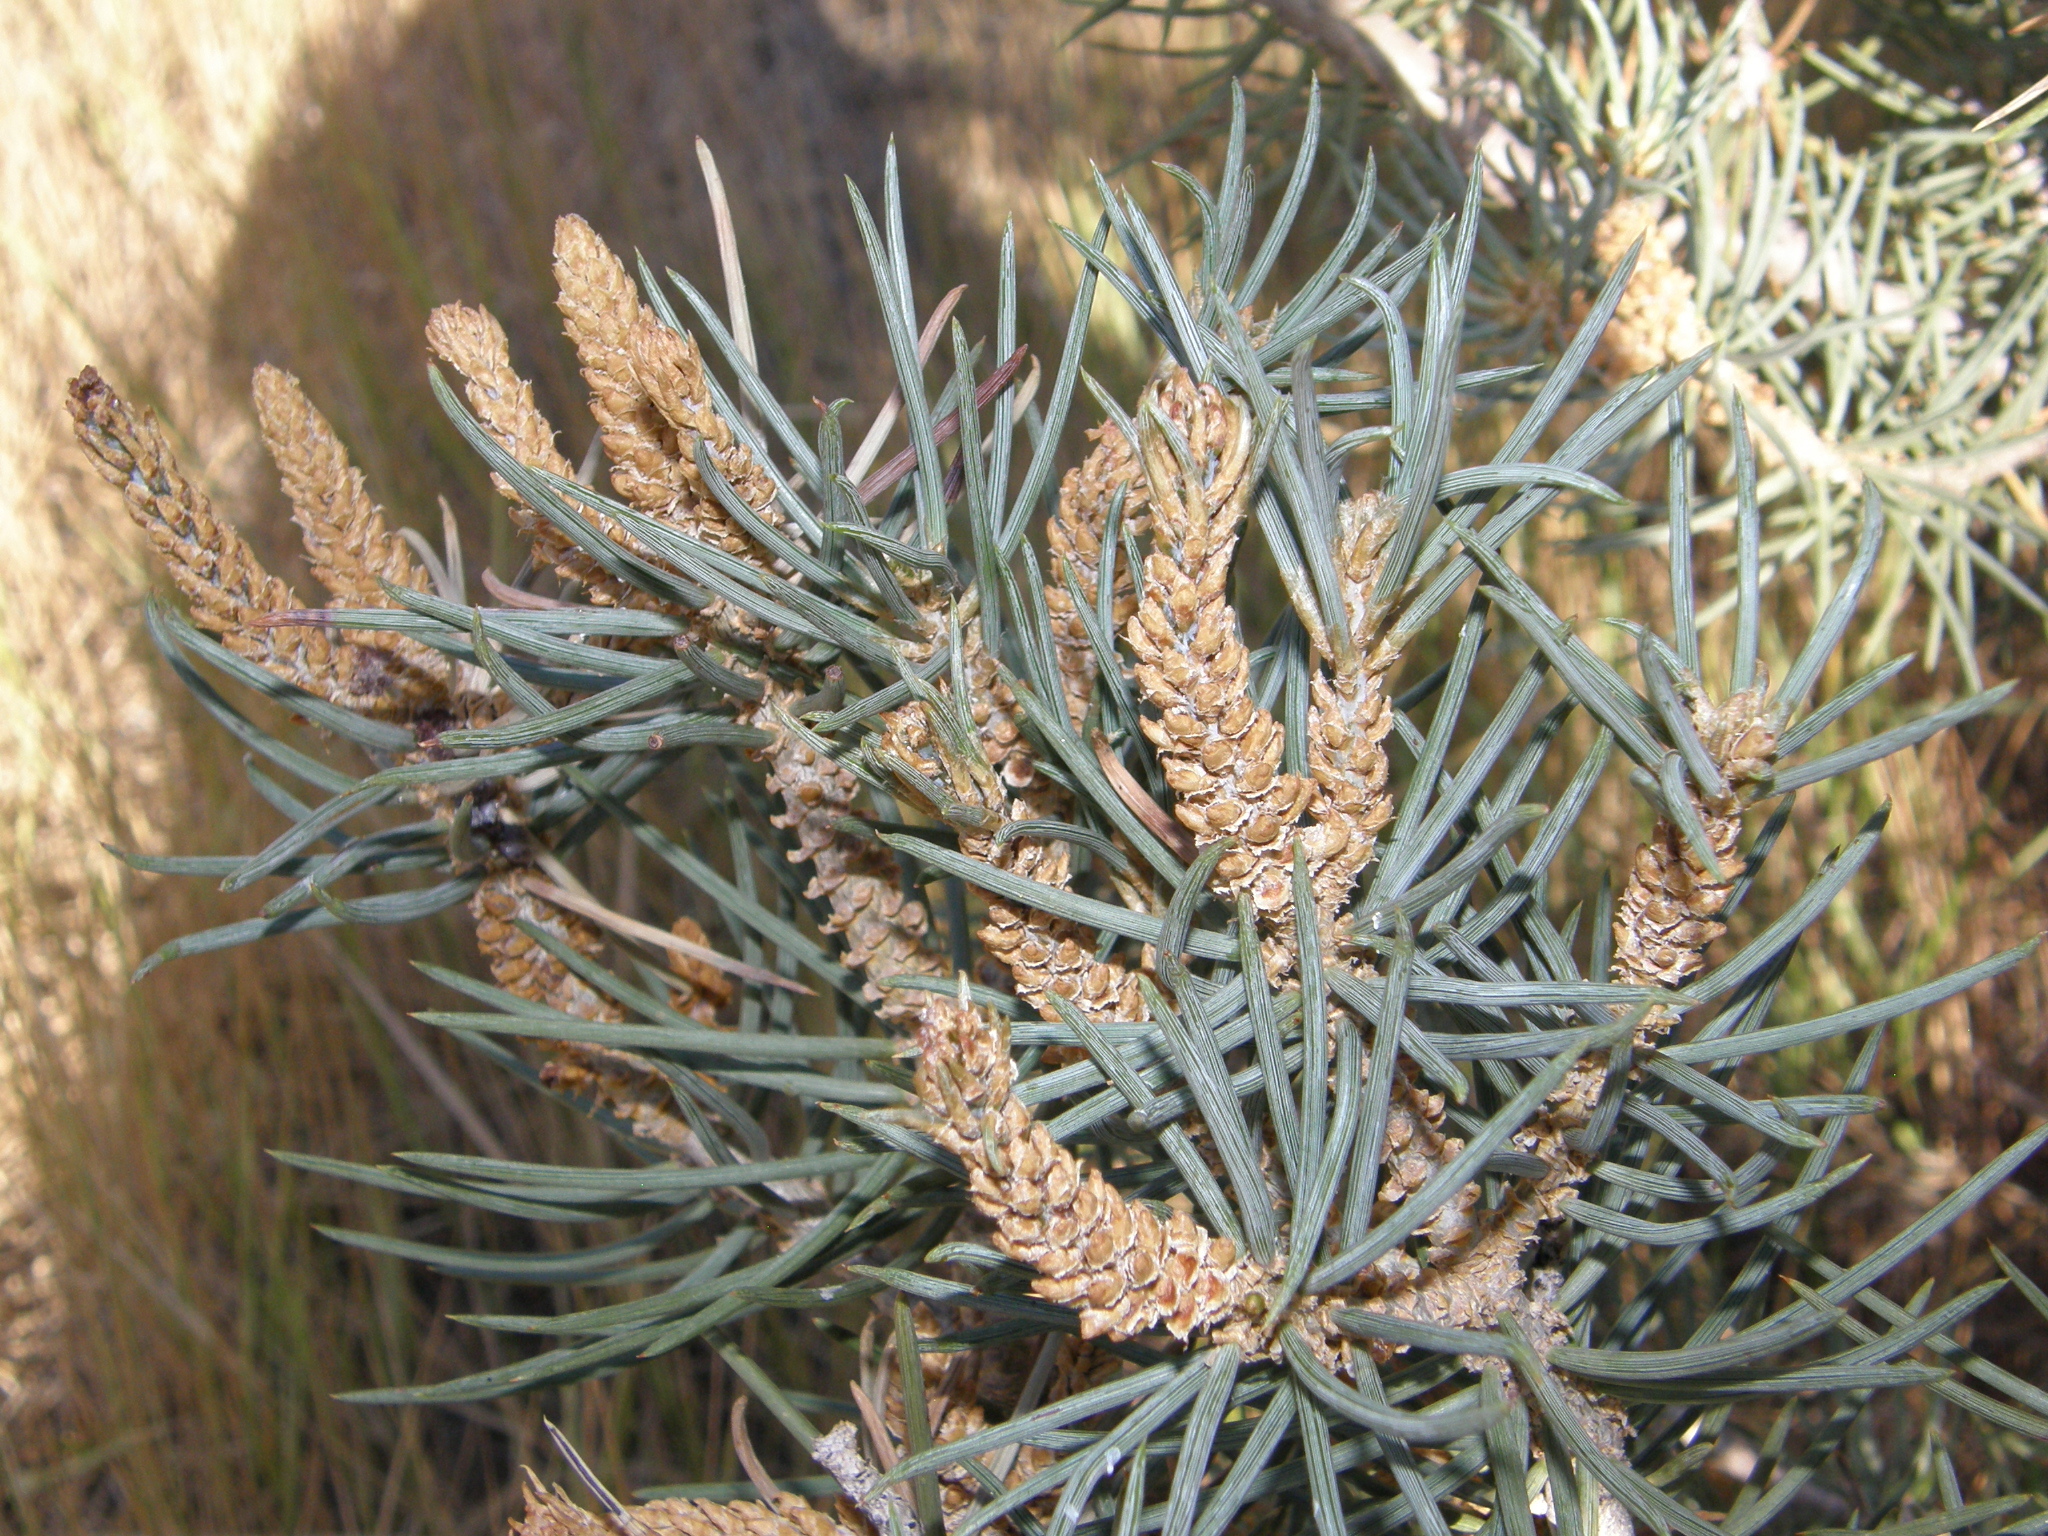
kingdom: Plantae
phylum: Tracheophyta
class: Pinopsida
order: Pinales
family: Pinaceae
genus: Pinus
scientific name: Pinus monophylla
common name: One-leaved nut pine
